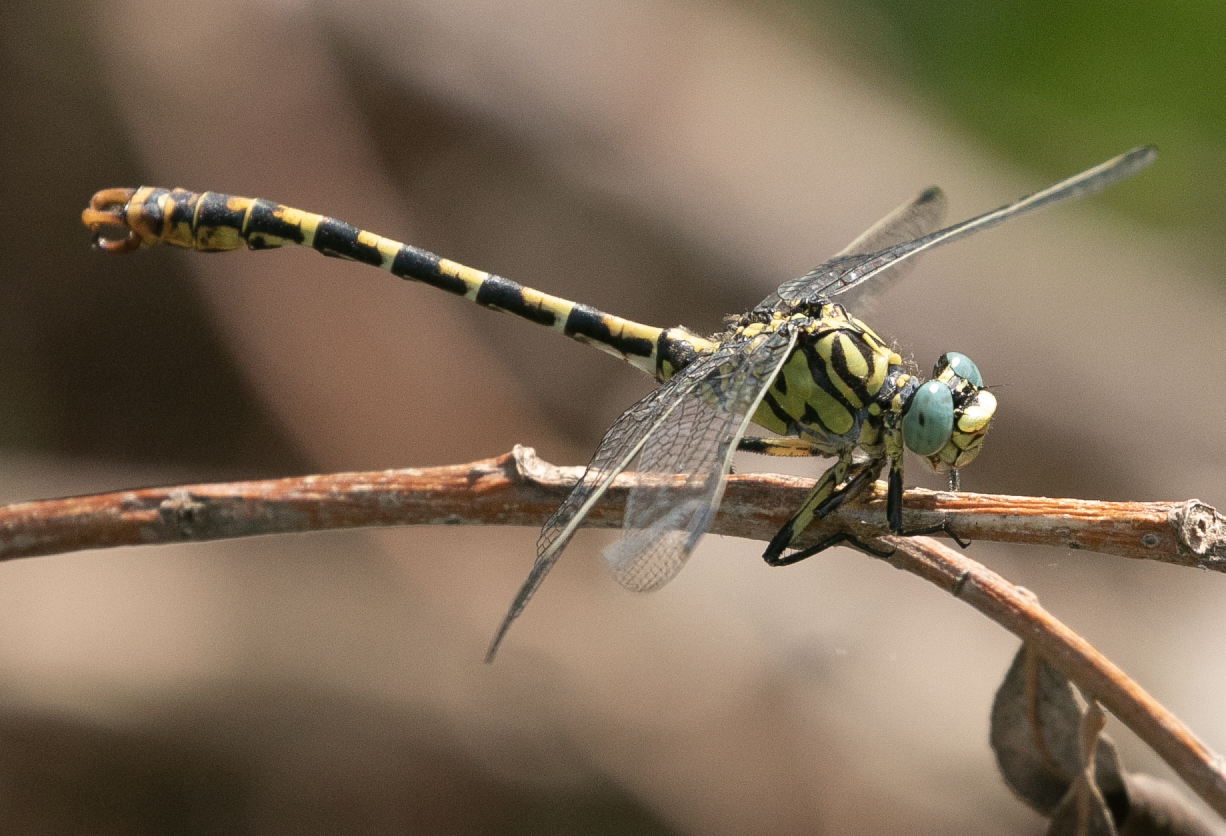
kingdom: Animalia
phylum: Arthropoda
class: Insecta
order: Odonata
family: Gomphidae
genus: Onychogomphus
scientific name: Onychogomphus forcipatus
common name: Small pincertail
